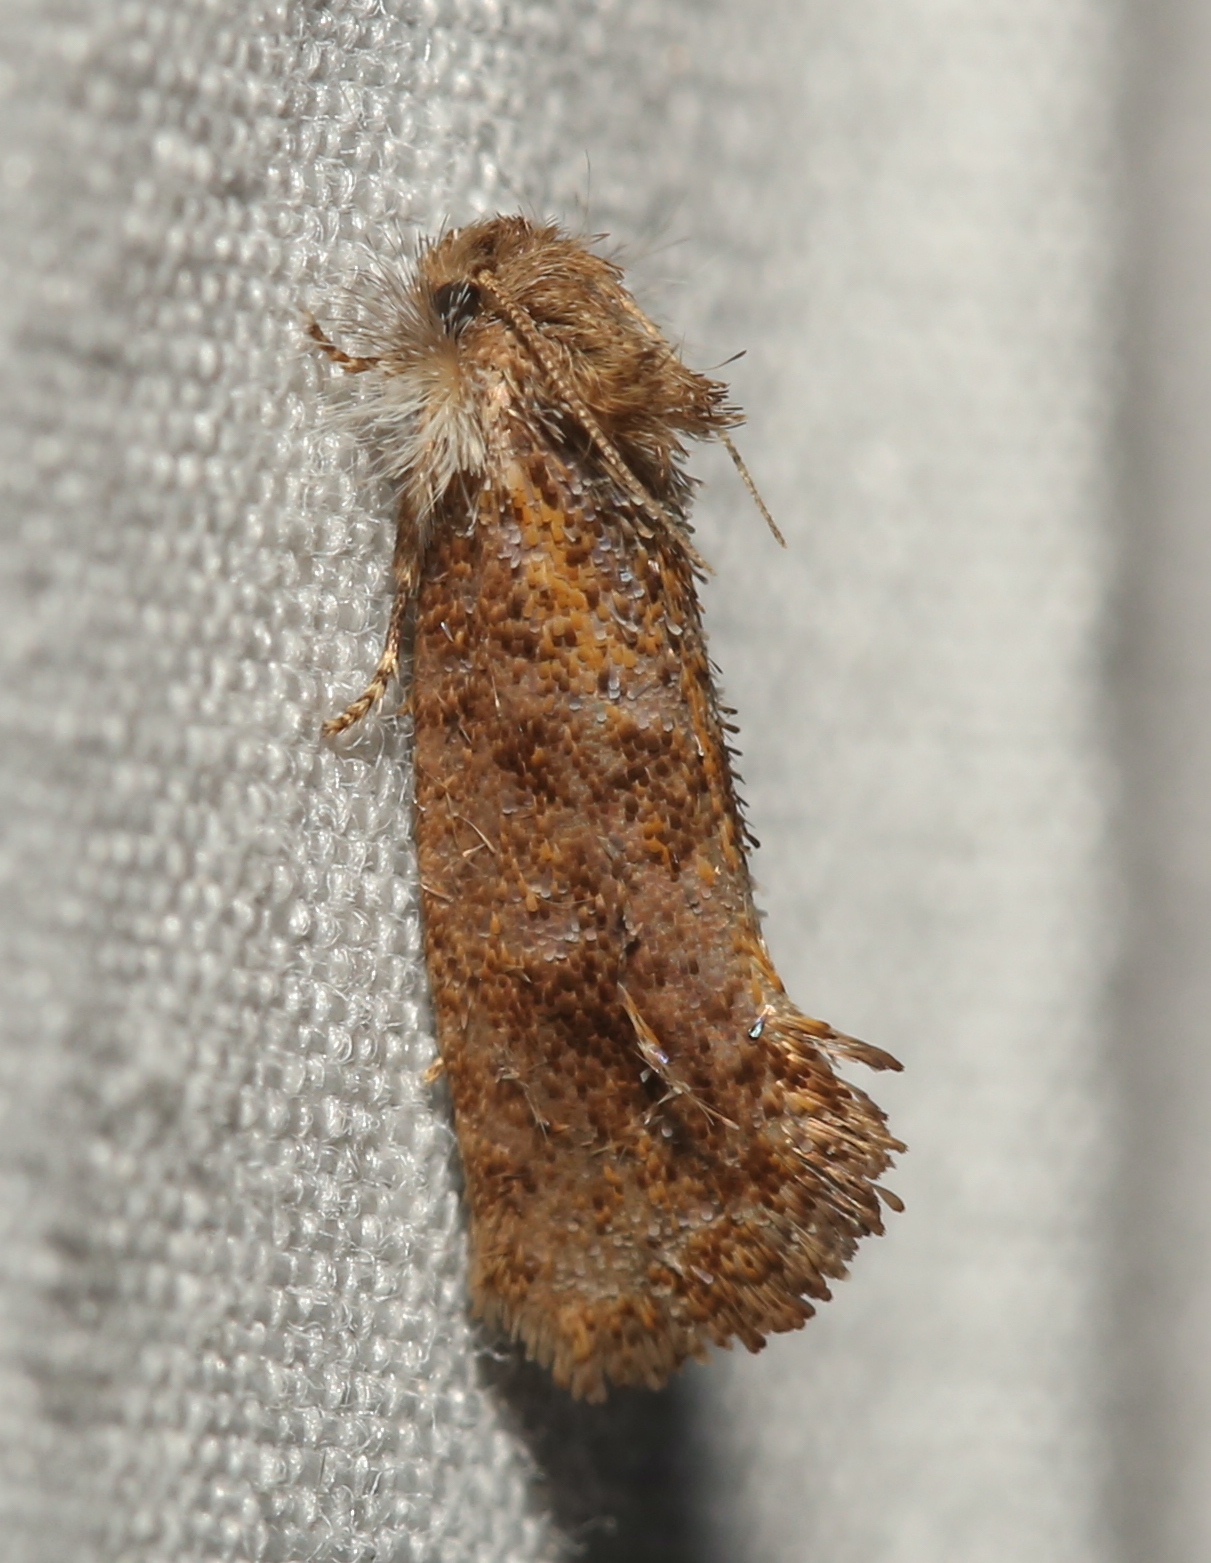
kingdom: Animalia
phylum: Arthropoda
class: Insecta
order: Lepidoptera
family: Tineidae
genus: Acrolophus
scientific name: Acrolophus panamae
